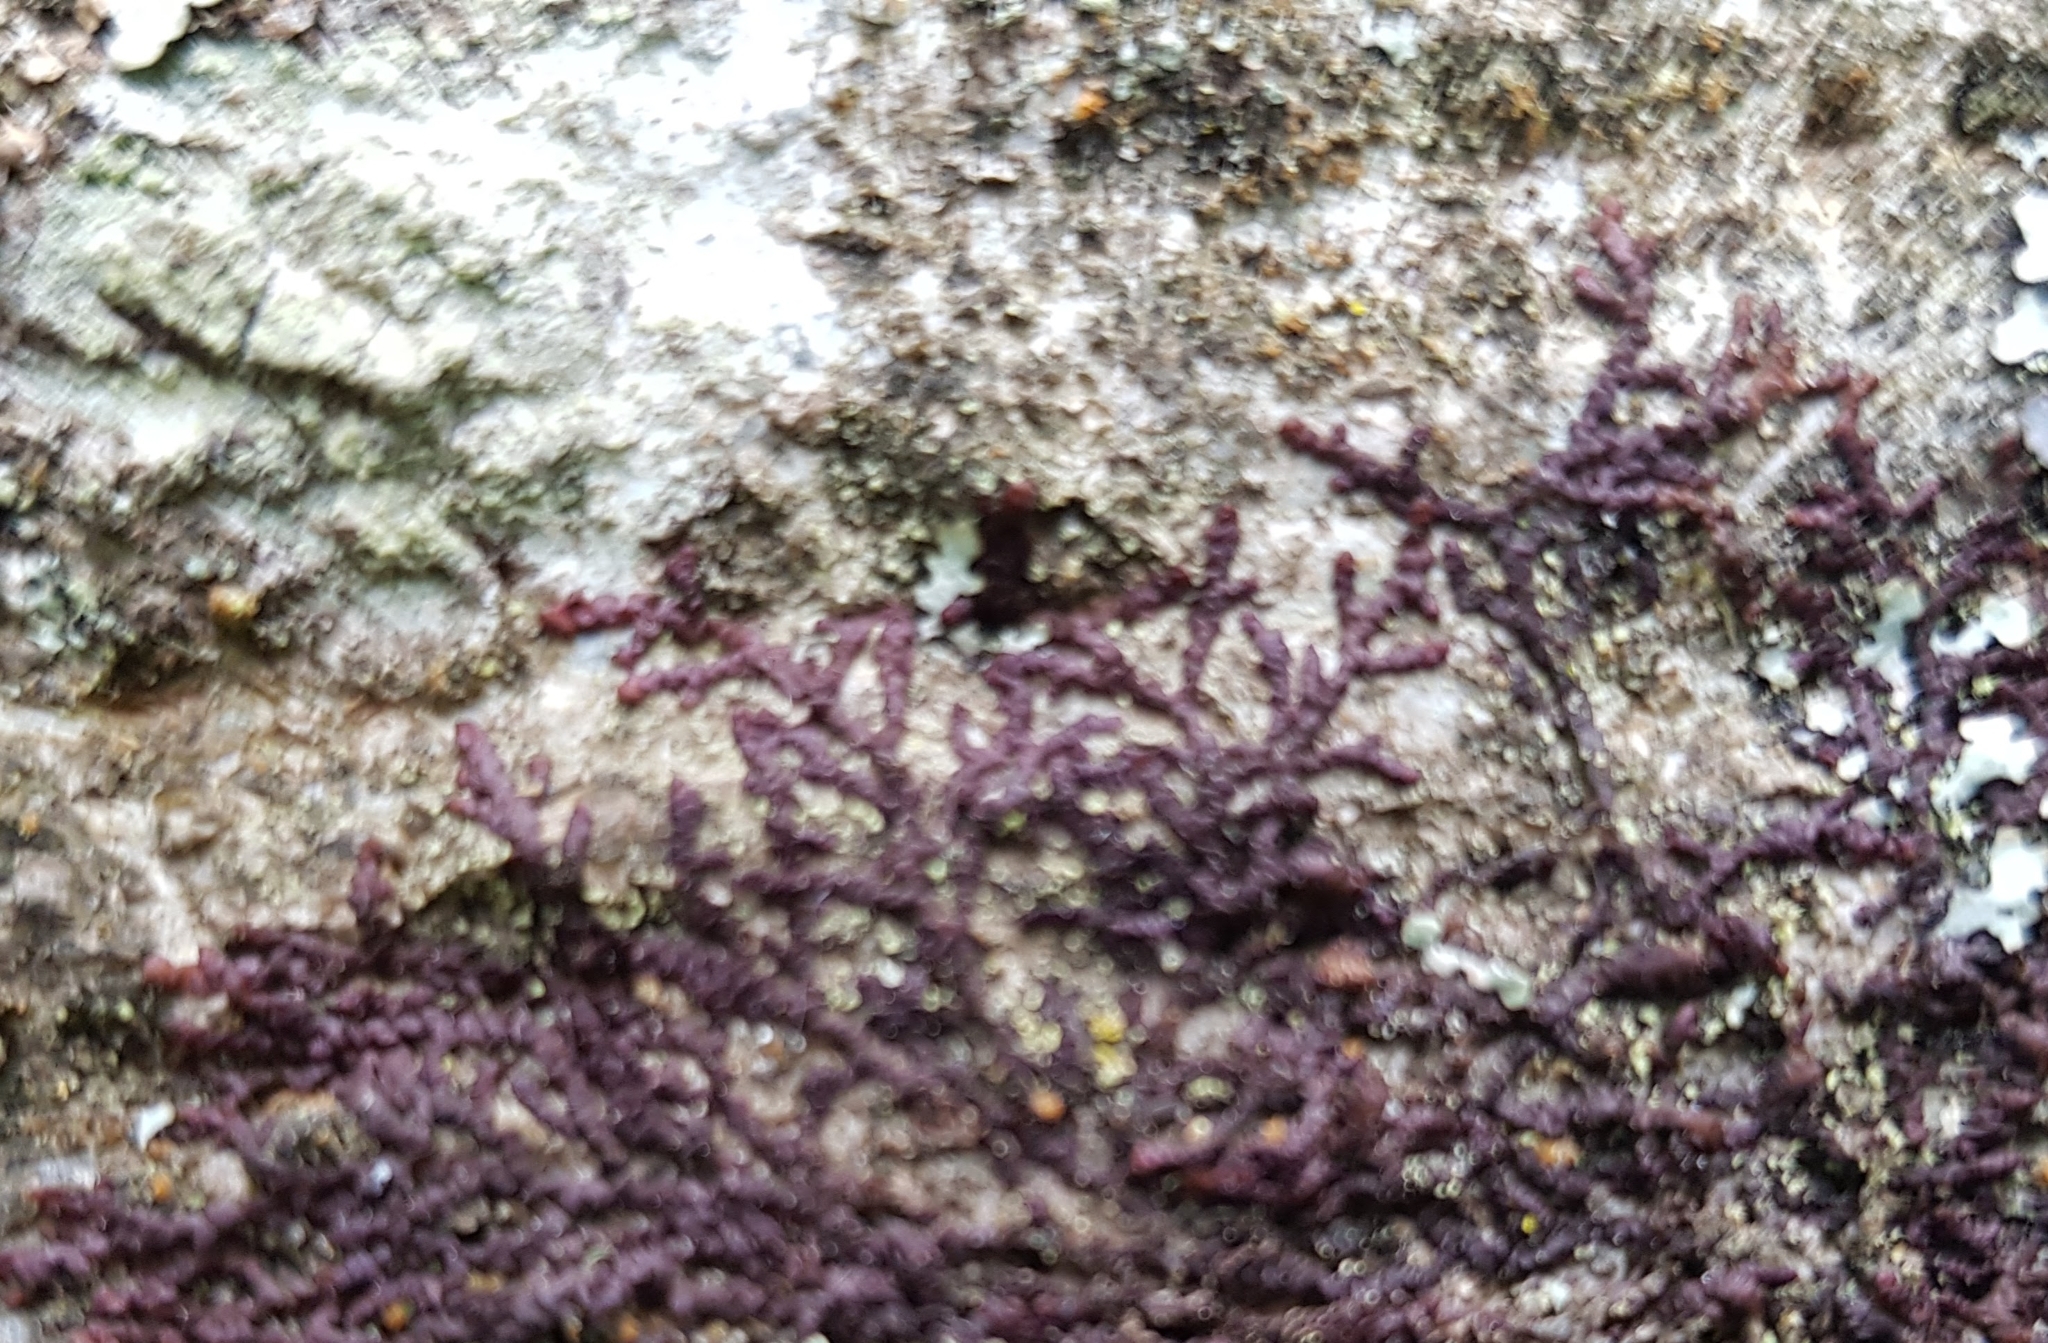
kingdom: Plantae
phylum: Marchantiophyta
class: Jungermanniopsida
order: Porellales
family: Frullaniaceae
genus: Frullania
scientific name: Frullania dilatata
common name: Dilated scalewort
